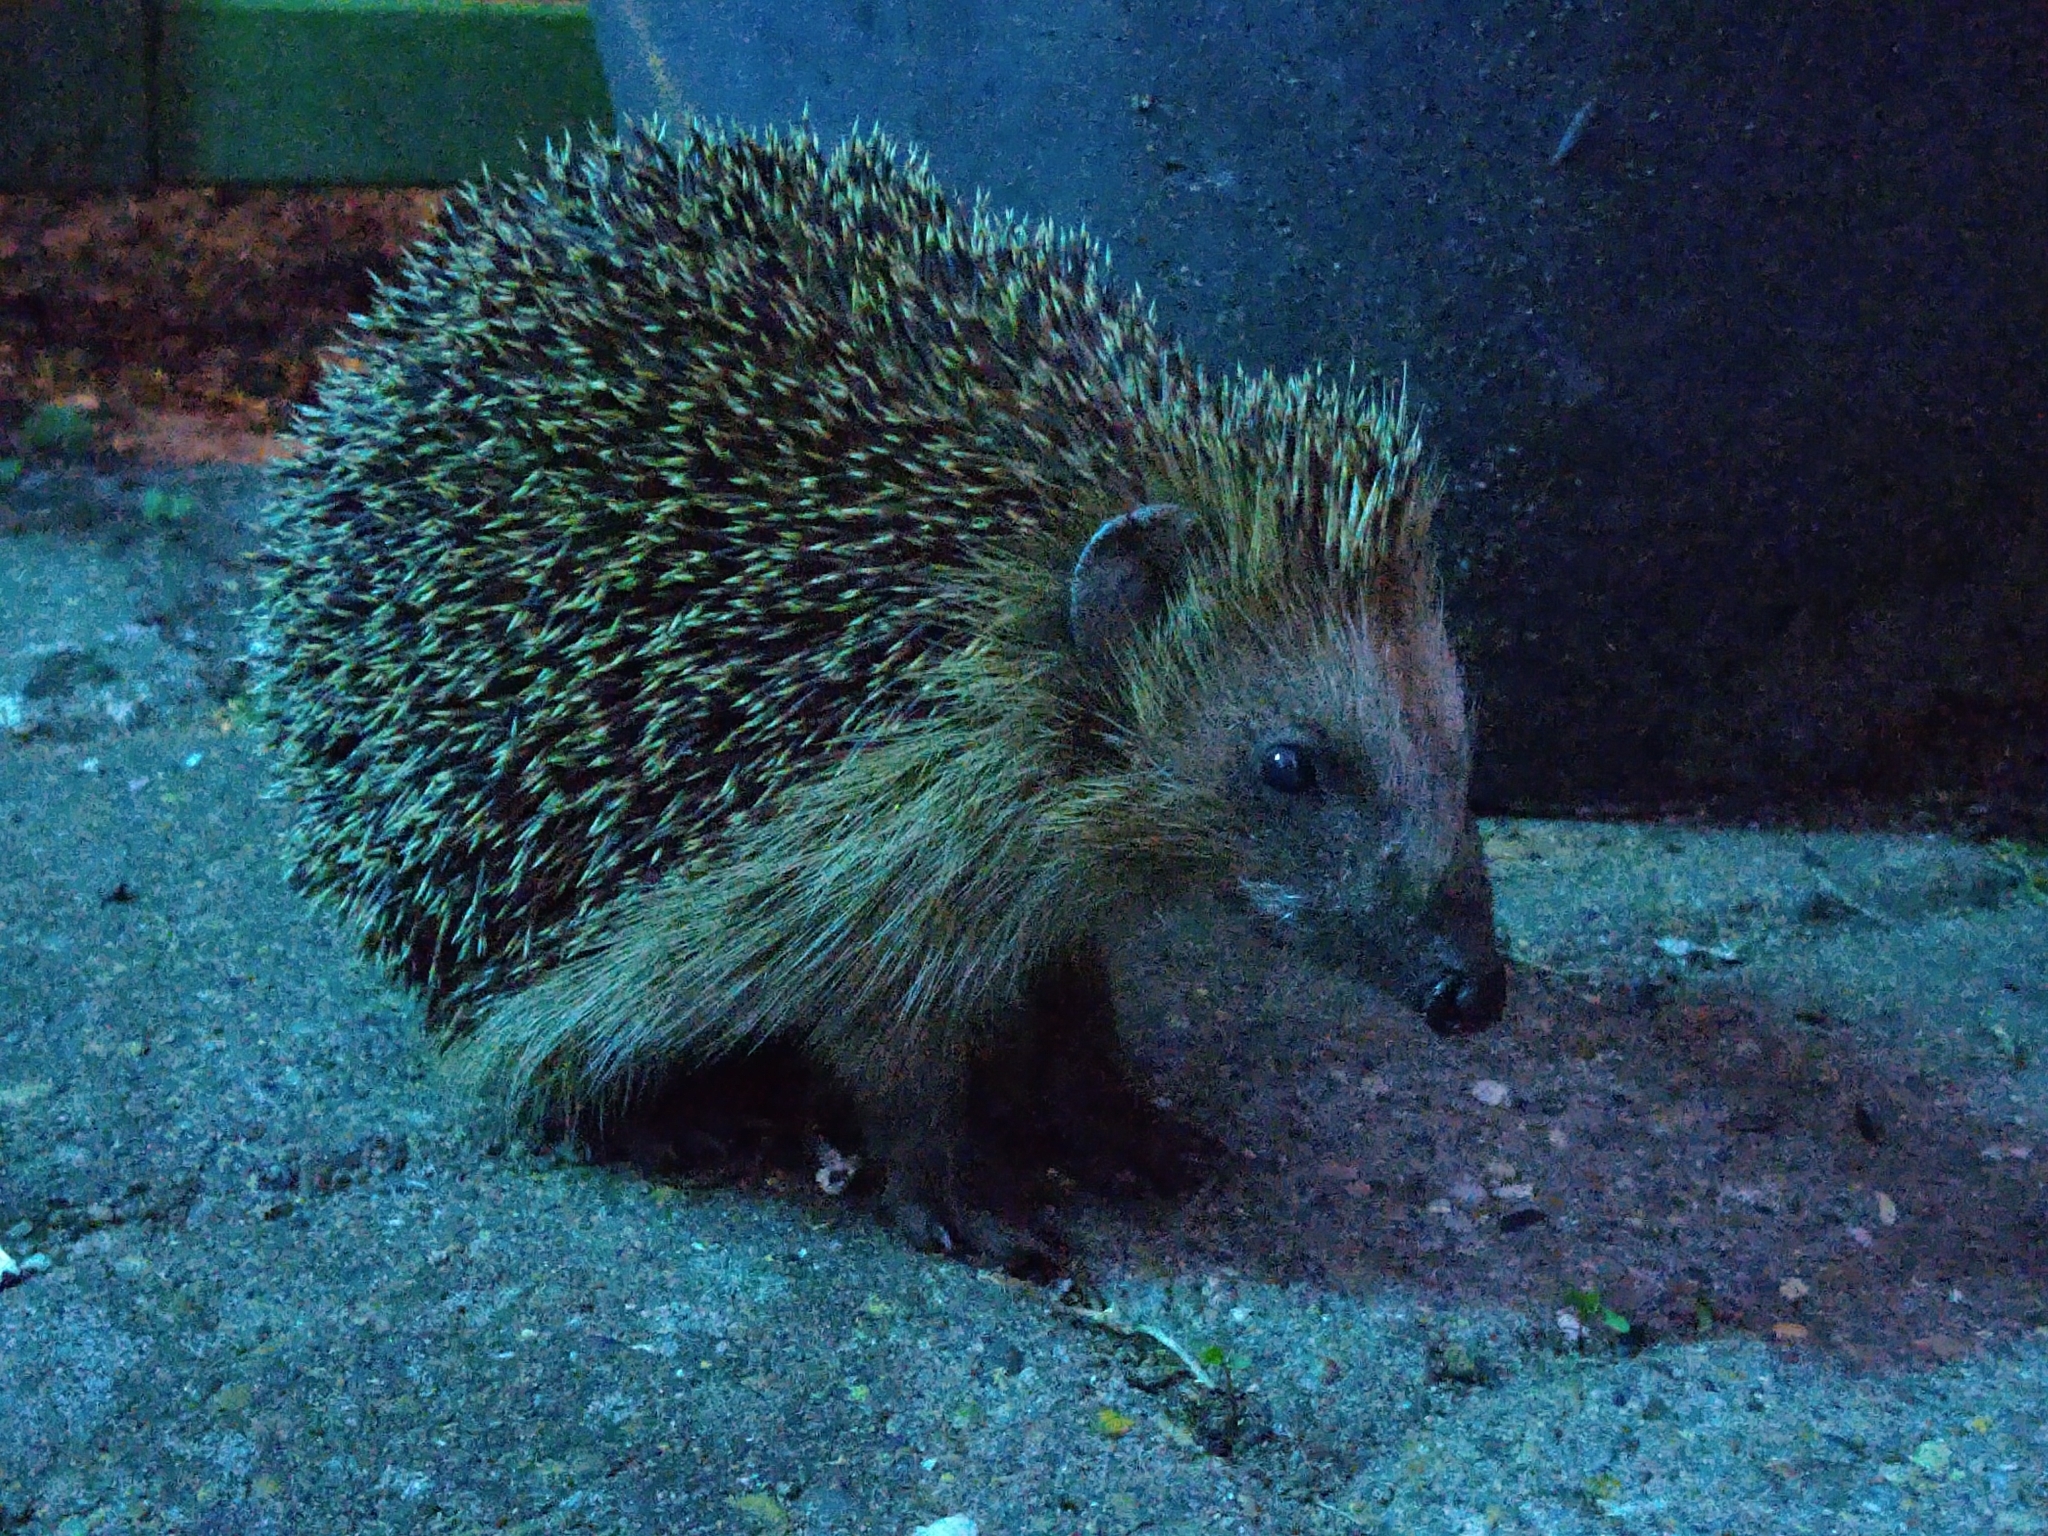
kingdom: Animalia
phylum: Chordata
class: Mammalia
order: Erinaceomorpha
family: Erinaceidae
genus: Erinaceus
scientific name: Erinaceus europaeus
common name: West european hedgehog
